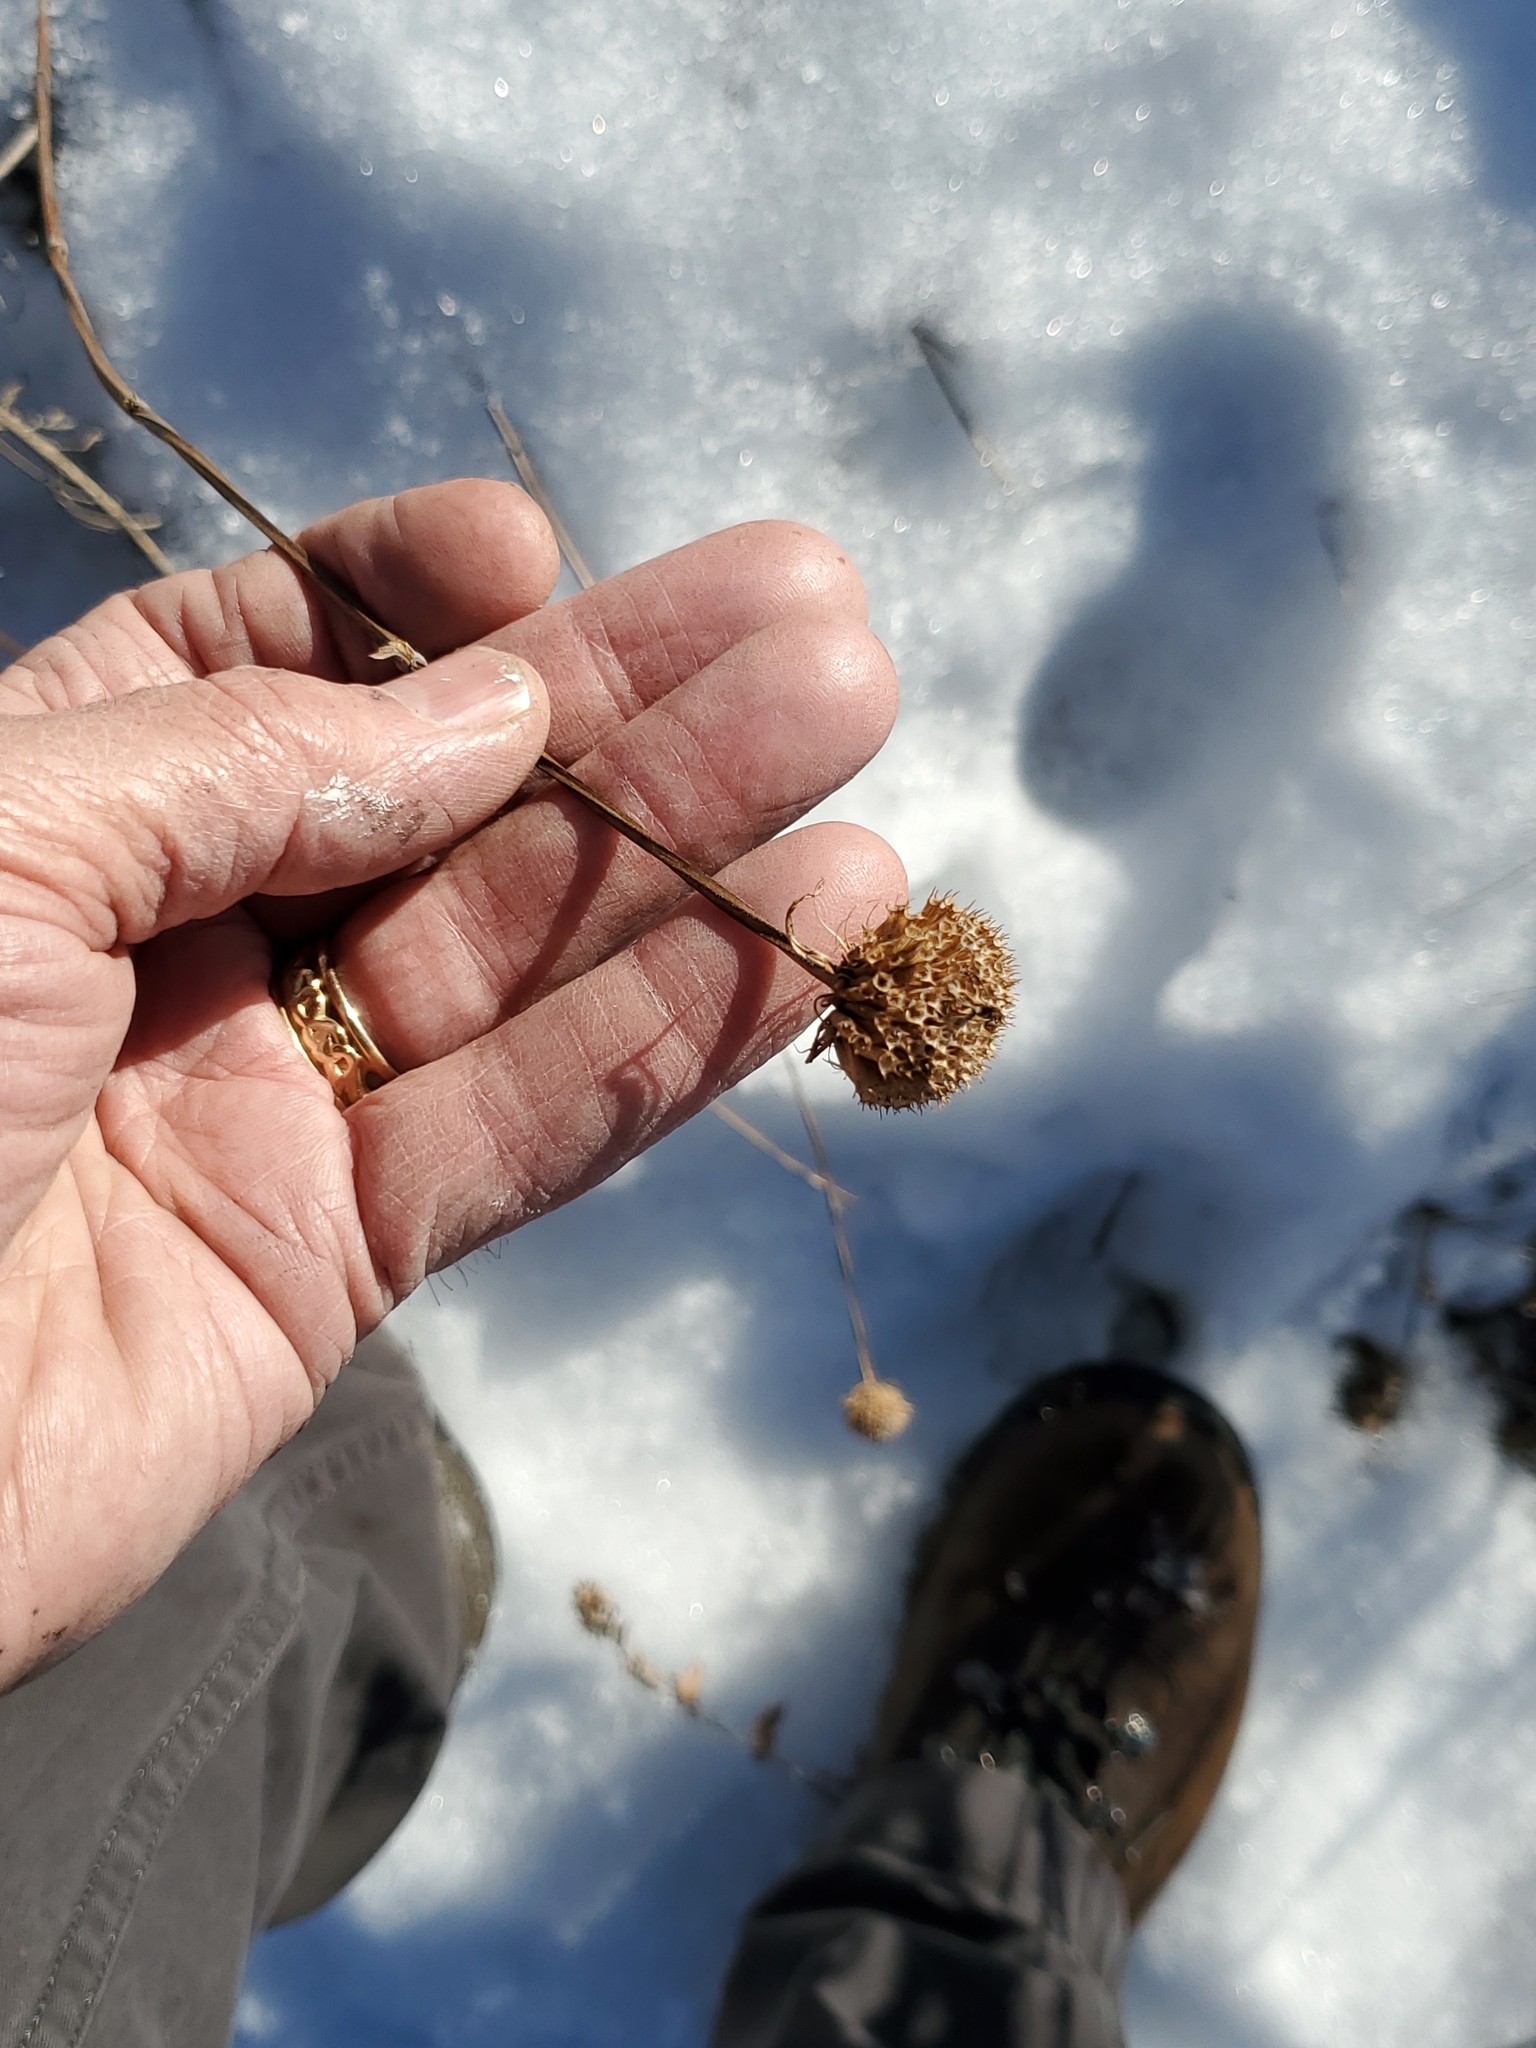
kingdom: Plantae
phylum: Tracheophyta
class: Magnoliopsida
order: Lamiales
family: Lamiaceae
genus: Monarda
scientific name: Monarda fistulosa
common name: Purple beebalm
